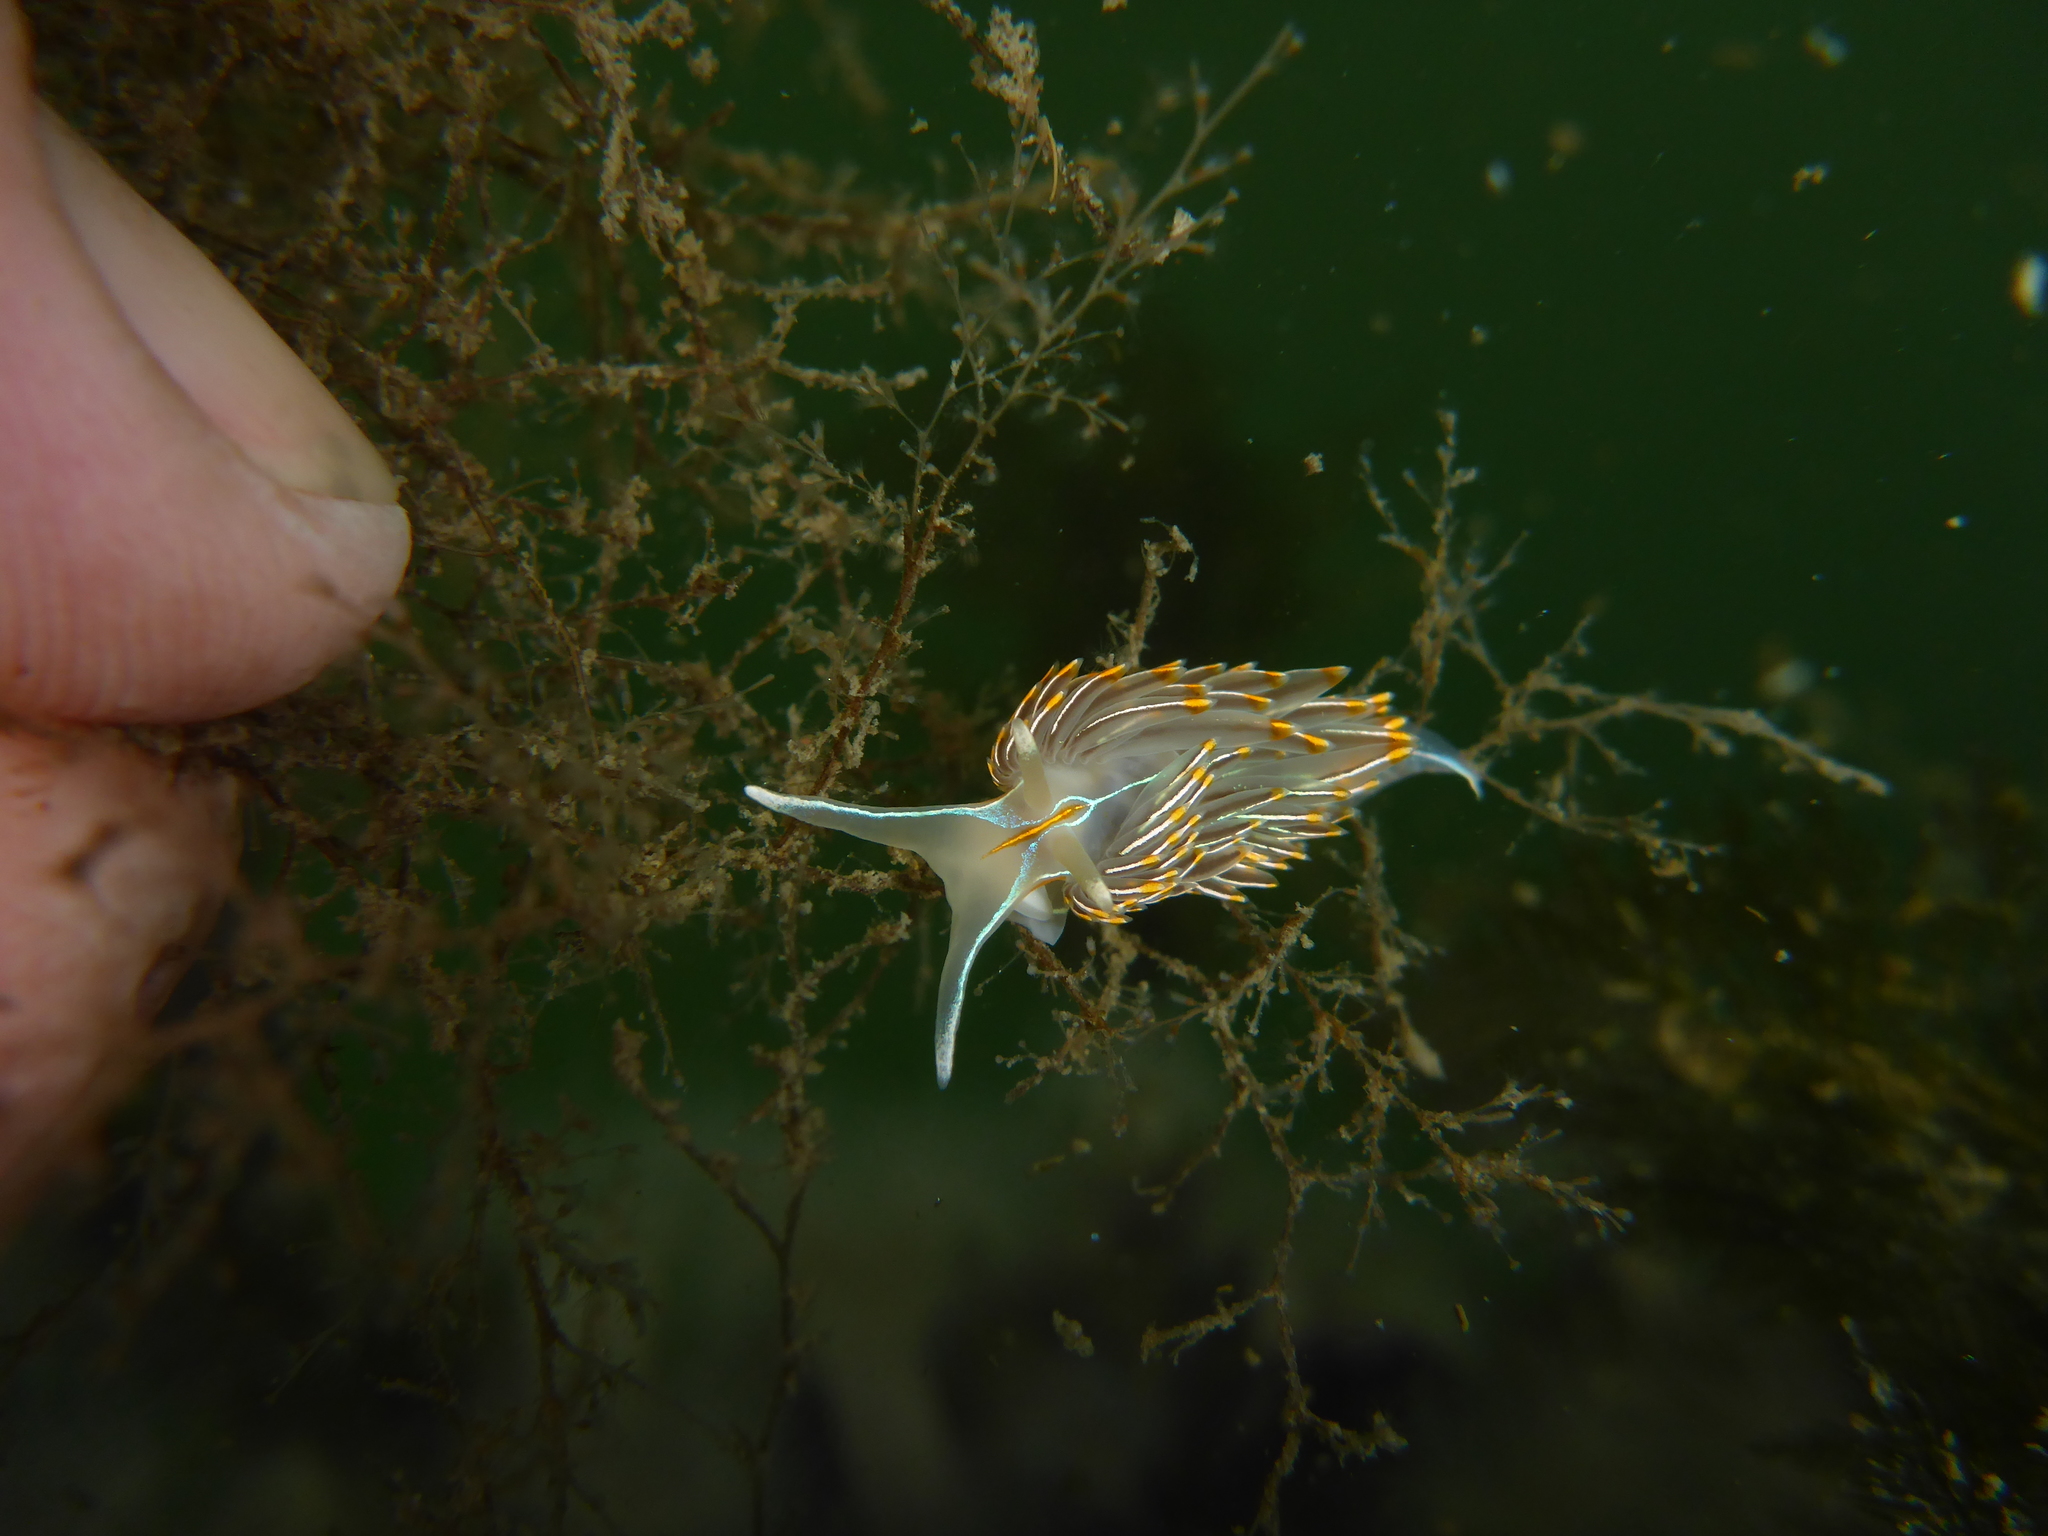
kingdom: Animalia
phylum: Mollusca
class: Gastropoda
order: Nudibranchia
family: Myrrhinidae
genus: Hermissenda
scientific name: Hermissenda crassicornis
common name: Hermissenda
